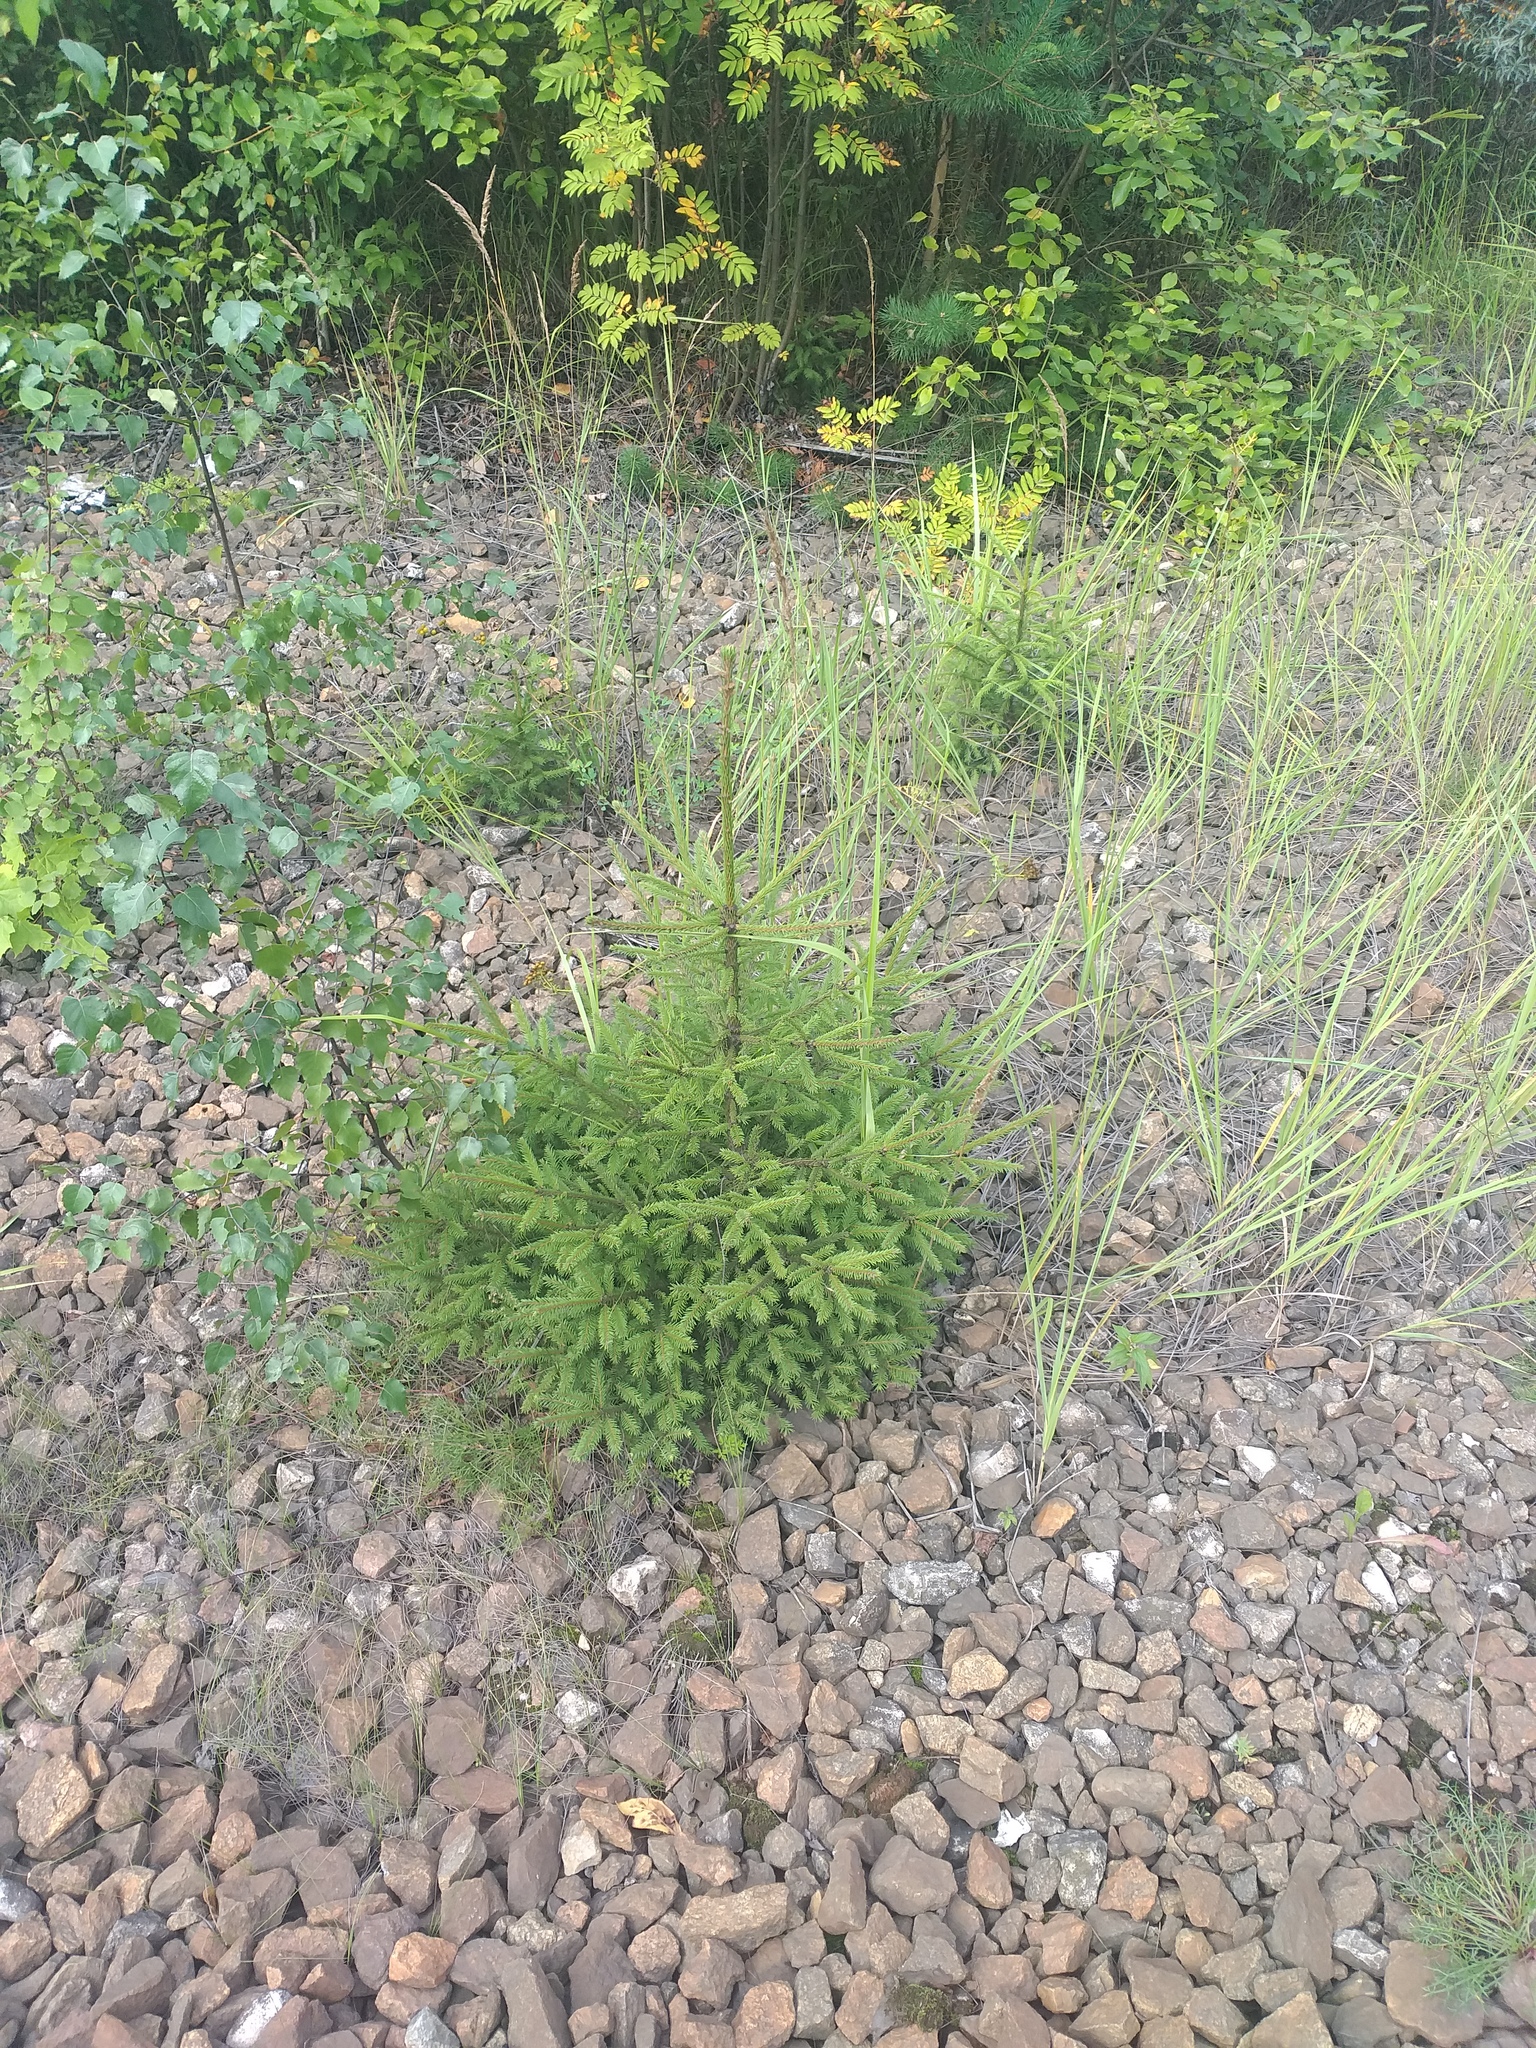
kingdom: Plantae
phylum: Tracheophyta
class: Pinopsida
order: Pinales
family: Pinaceae
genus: Picea
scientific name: Picea abies
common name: Norway spruce
